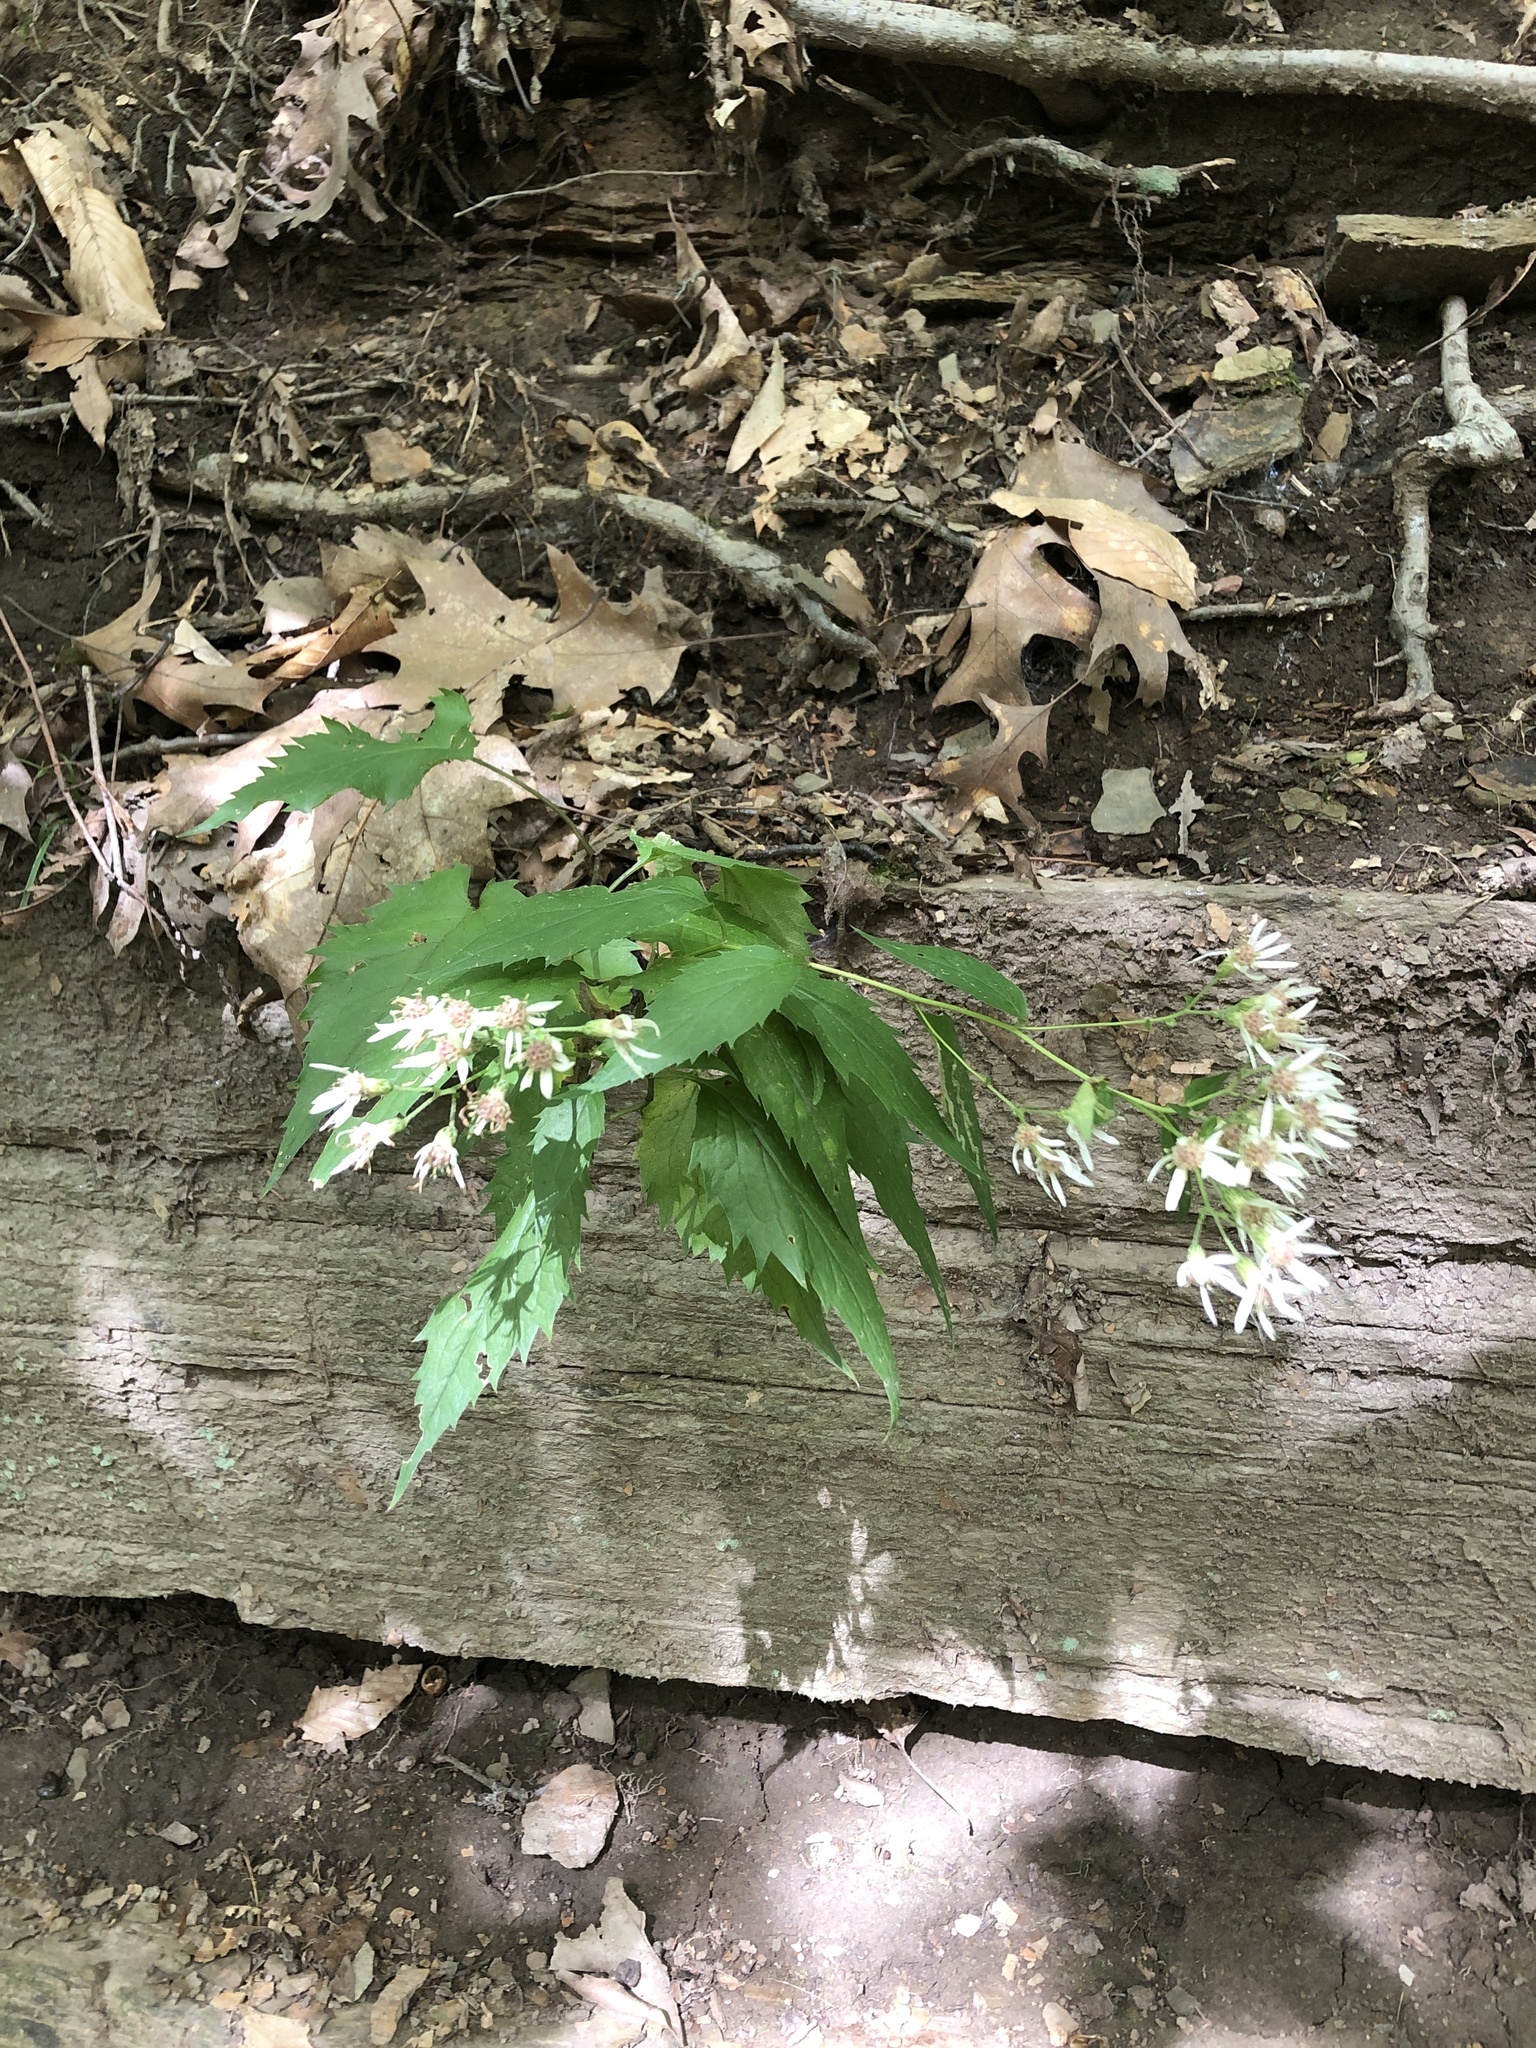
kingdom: Plantae
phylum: Tracheophyta
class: Magnoliopsida
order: Asterales
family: Asteraceae
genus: Eurybia
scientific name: Eurybia divaricata
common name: White wood aster
